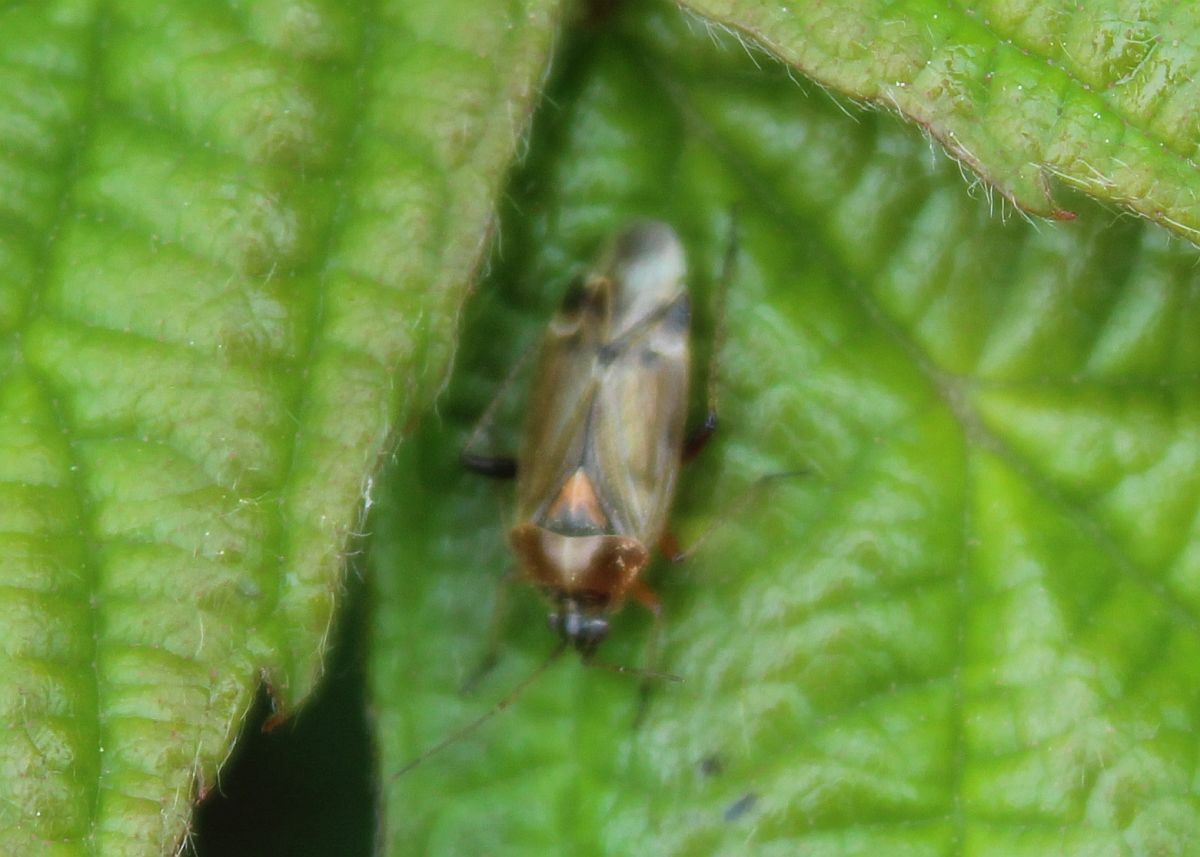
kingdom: Animalia
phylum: Arthropoda
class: Insecta
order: Hemiptera
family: Miridae
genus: Harpocera
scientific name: Harpocera thoracica
